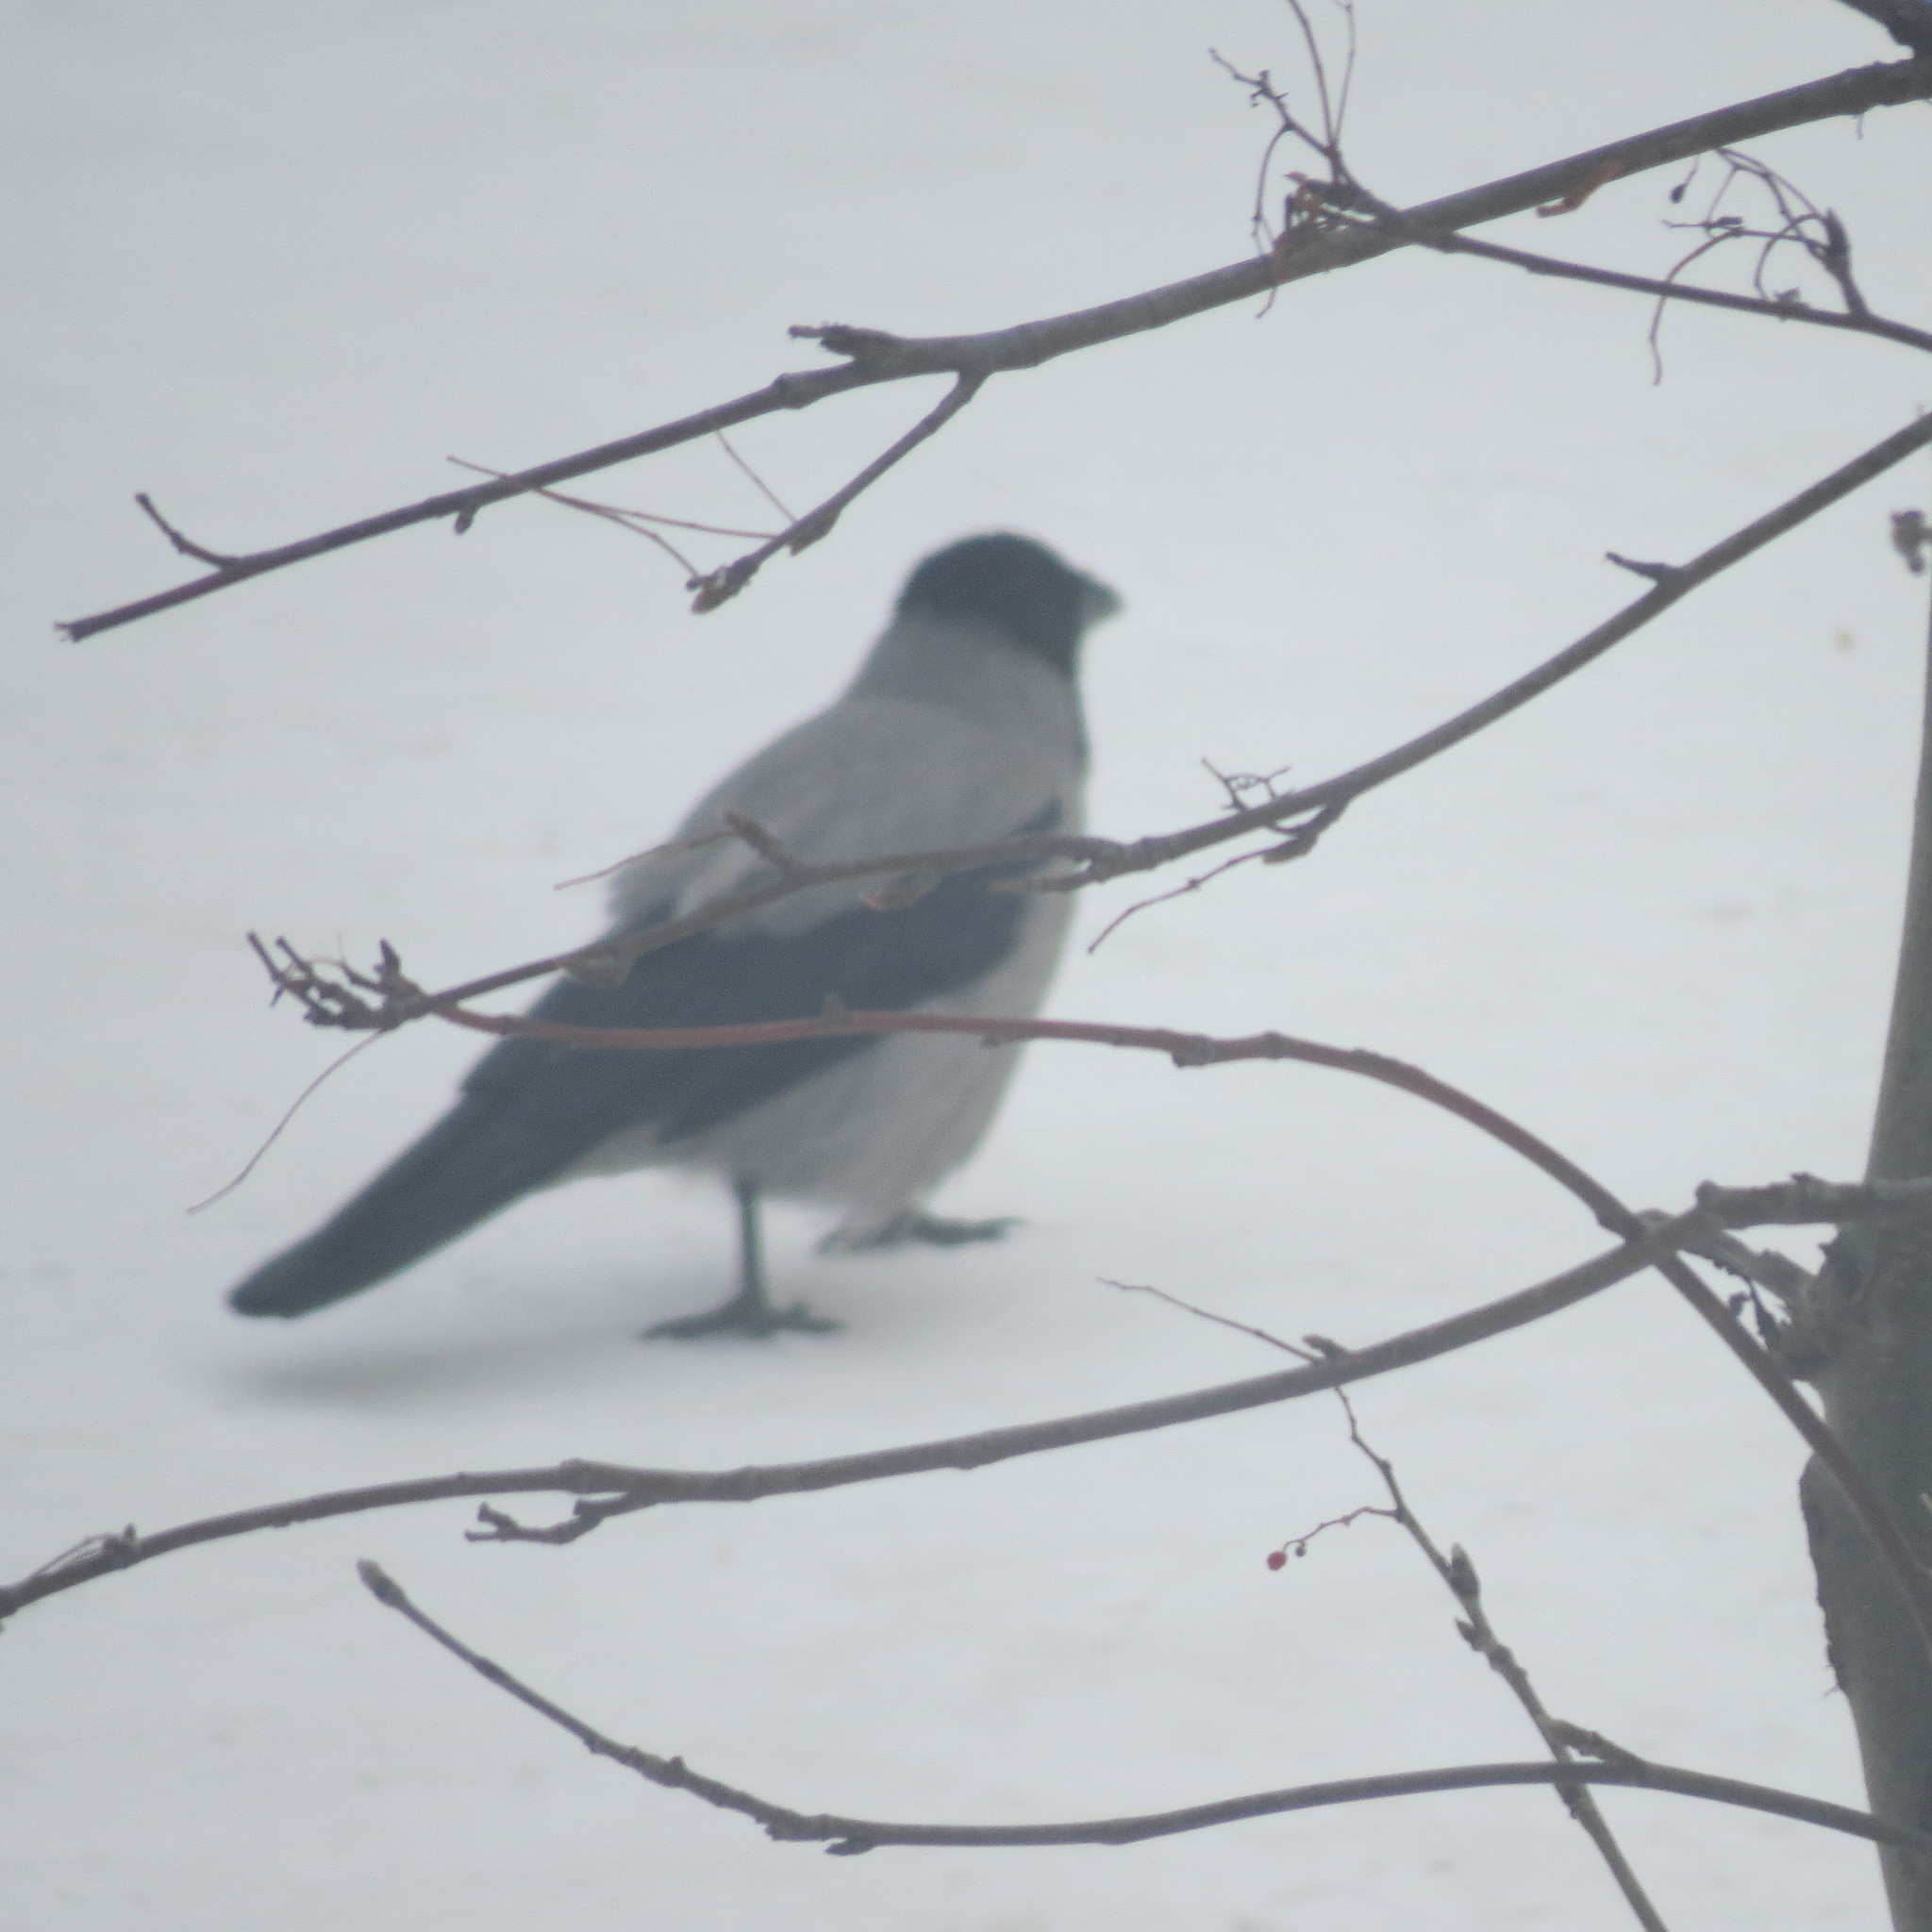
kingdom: Animalia
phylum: Chordata
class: Aves
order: Passeriformes
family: Corvidae
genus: Corvus
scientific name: Corvus cornix
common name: Hooded crow
